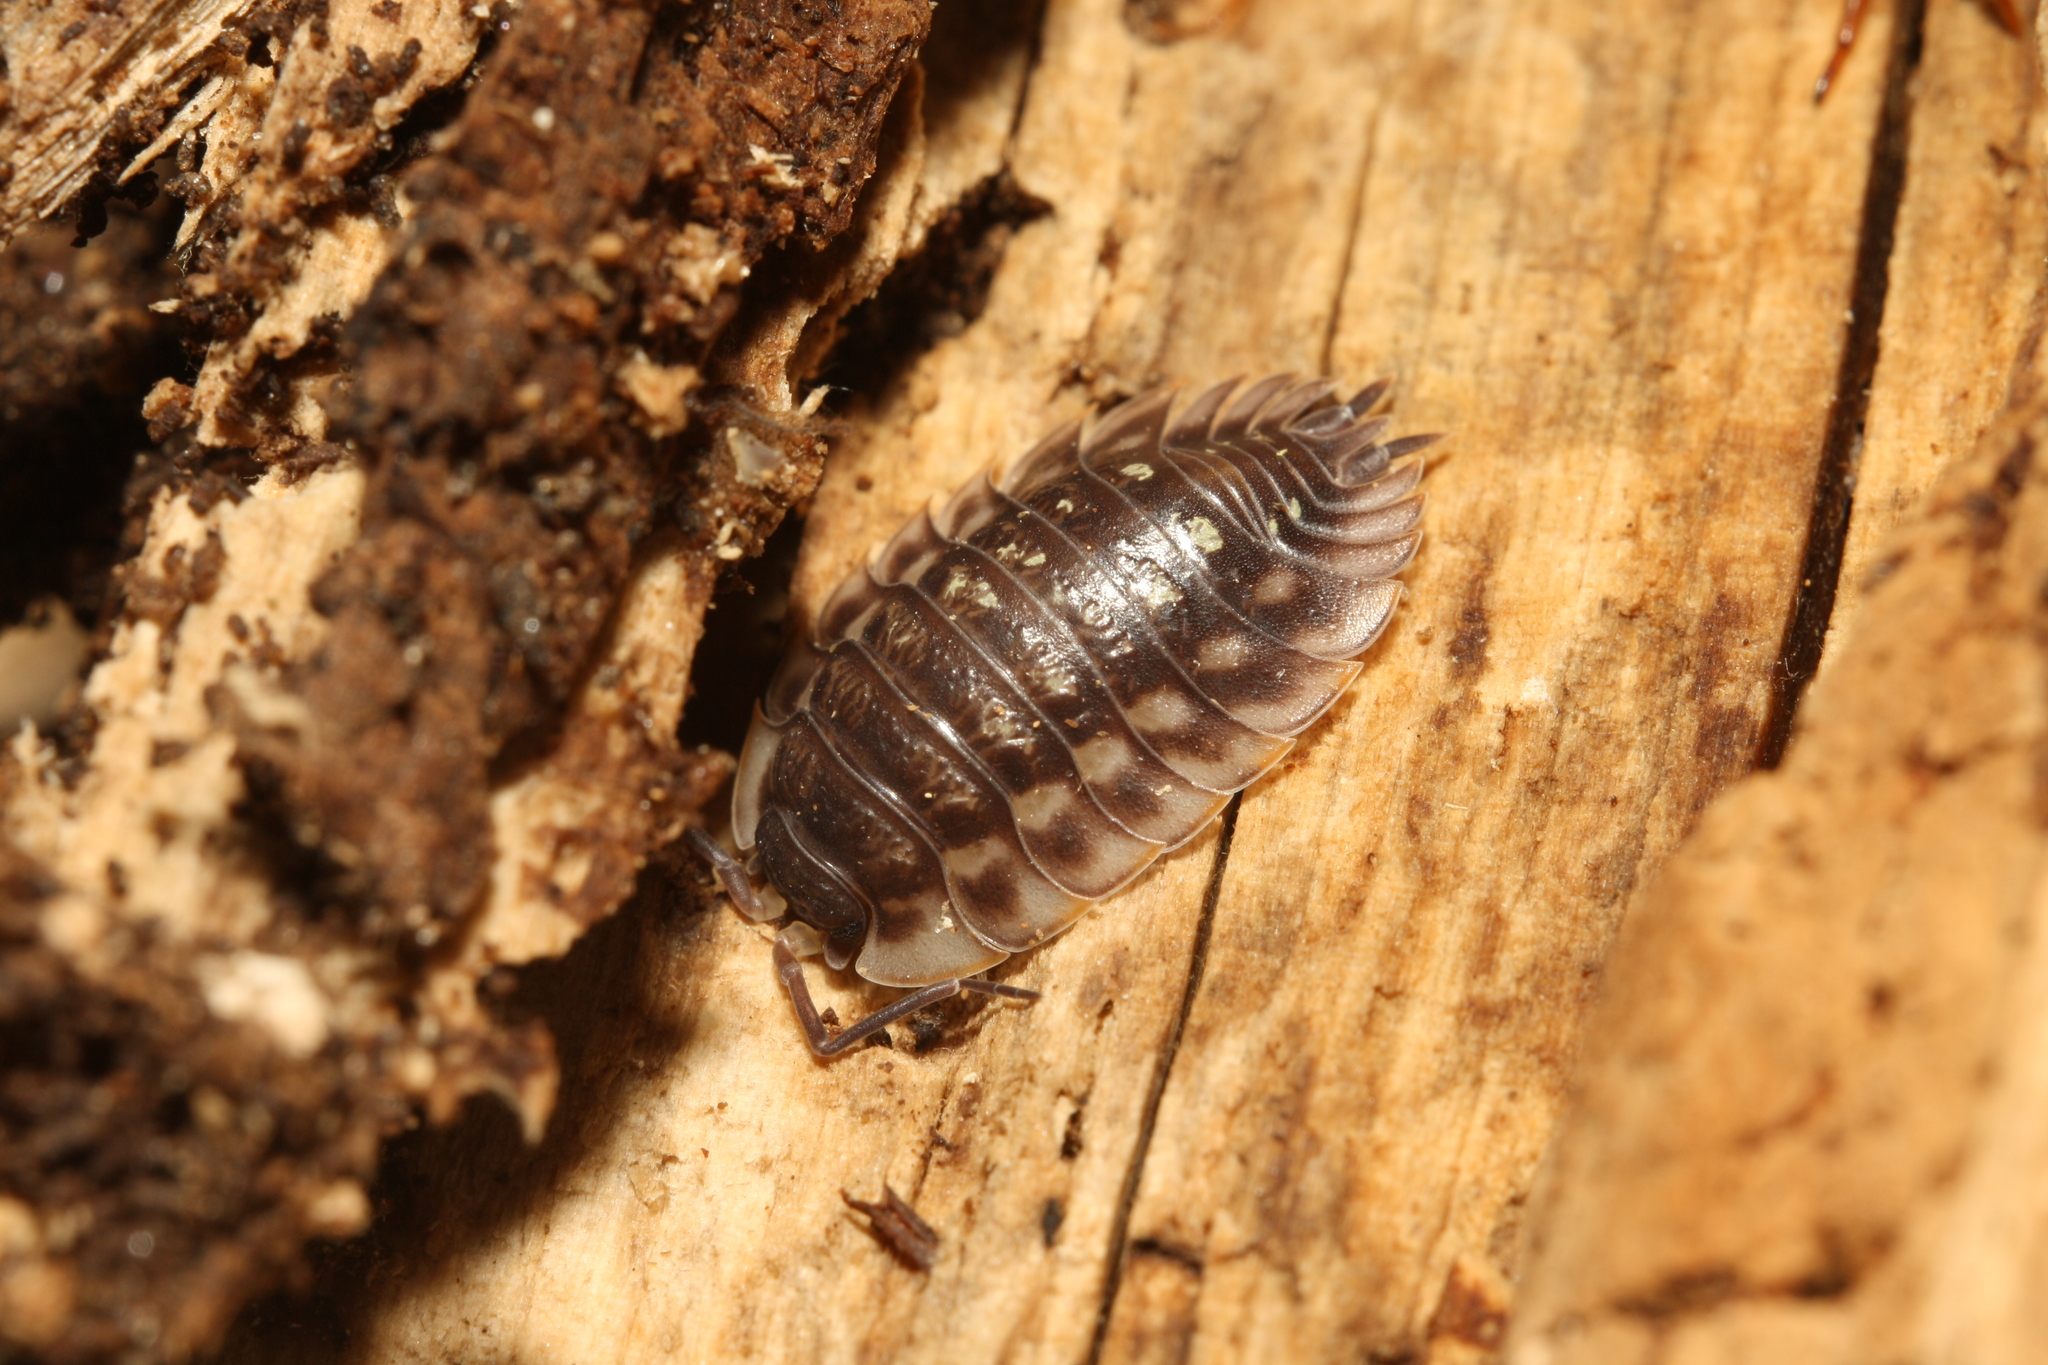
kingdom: Animalia
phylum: Arthropoda
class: Malacostraca
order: Isopoda
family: Oniscidae
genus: Oniscus
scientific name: Oniscus asellus
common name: Common shiny woodlouse
